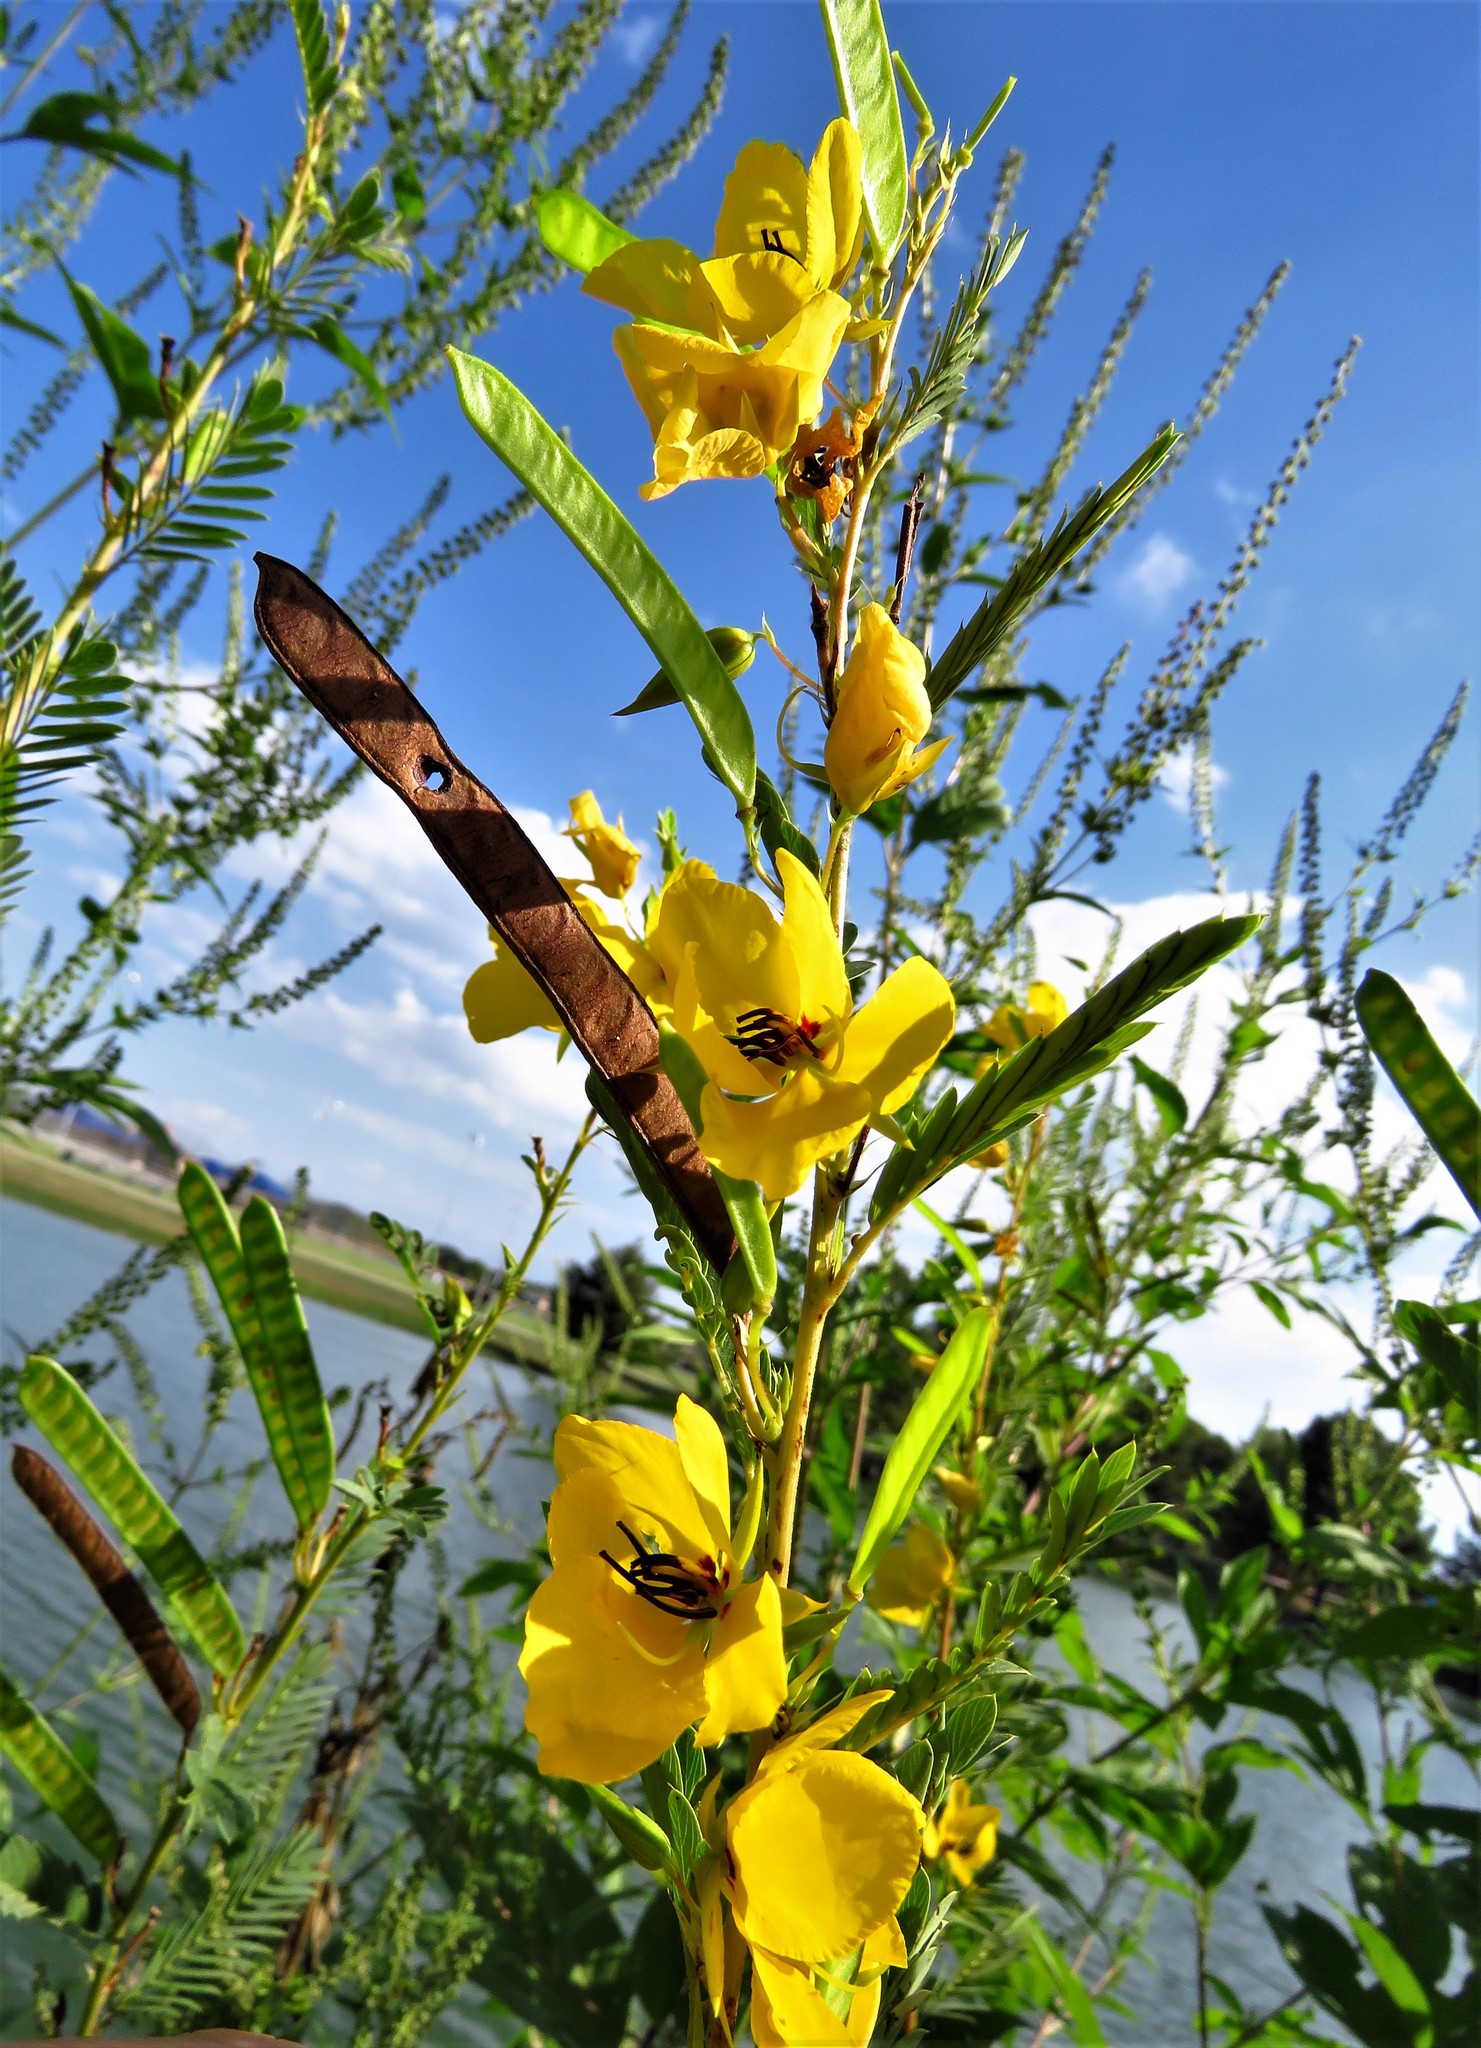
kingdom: Plantae
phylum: Tracheophyta
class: Magnoliopsida
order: Fabales
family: Fabaceae
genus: Chamaecrista
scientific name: Chamaecrista fasciculata
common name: Golden cassia
